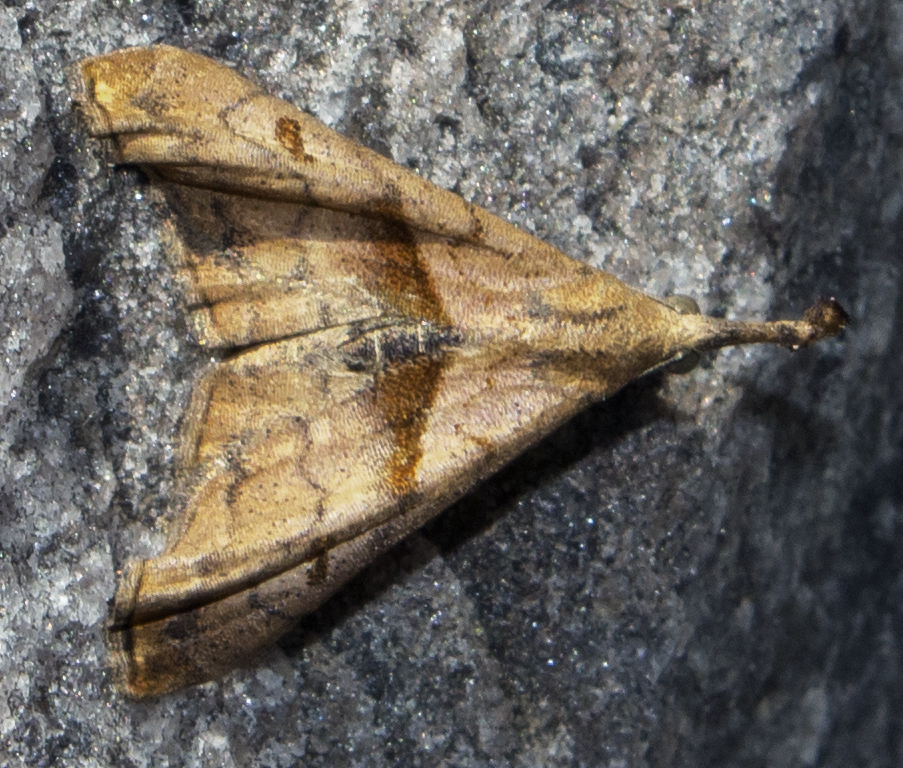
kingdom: Animalia
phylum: Arthropoda
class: Insecta
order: Lepidoptera
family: Erebidae
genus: Palthis
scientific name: Palthis angulalis
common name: Dark-spotted palthis moth
